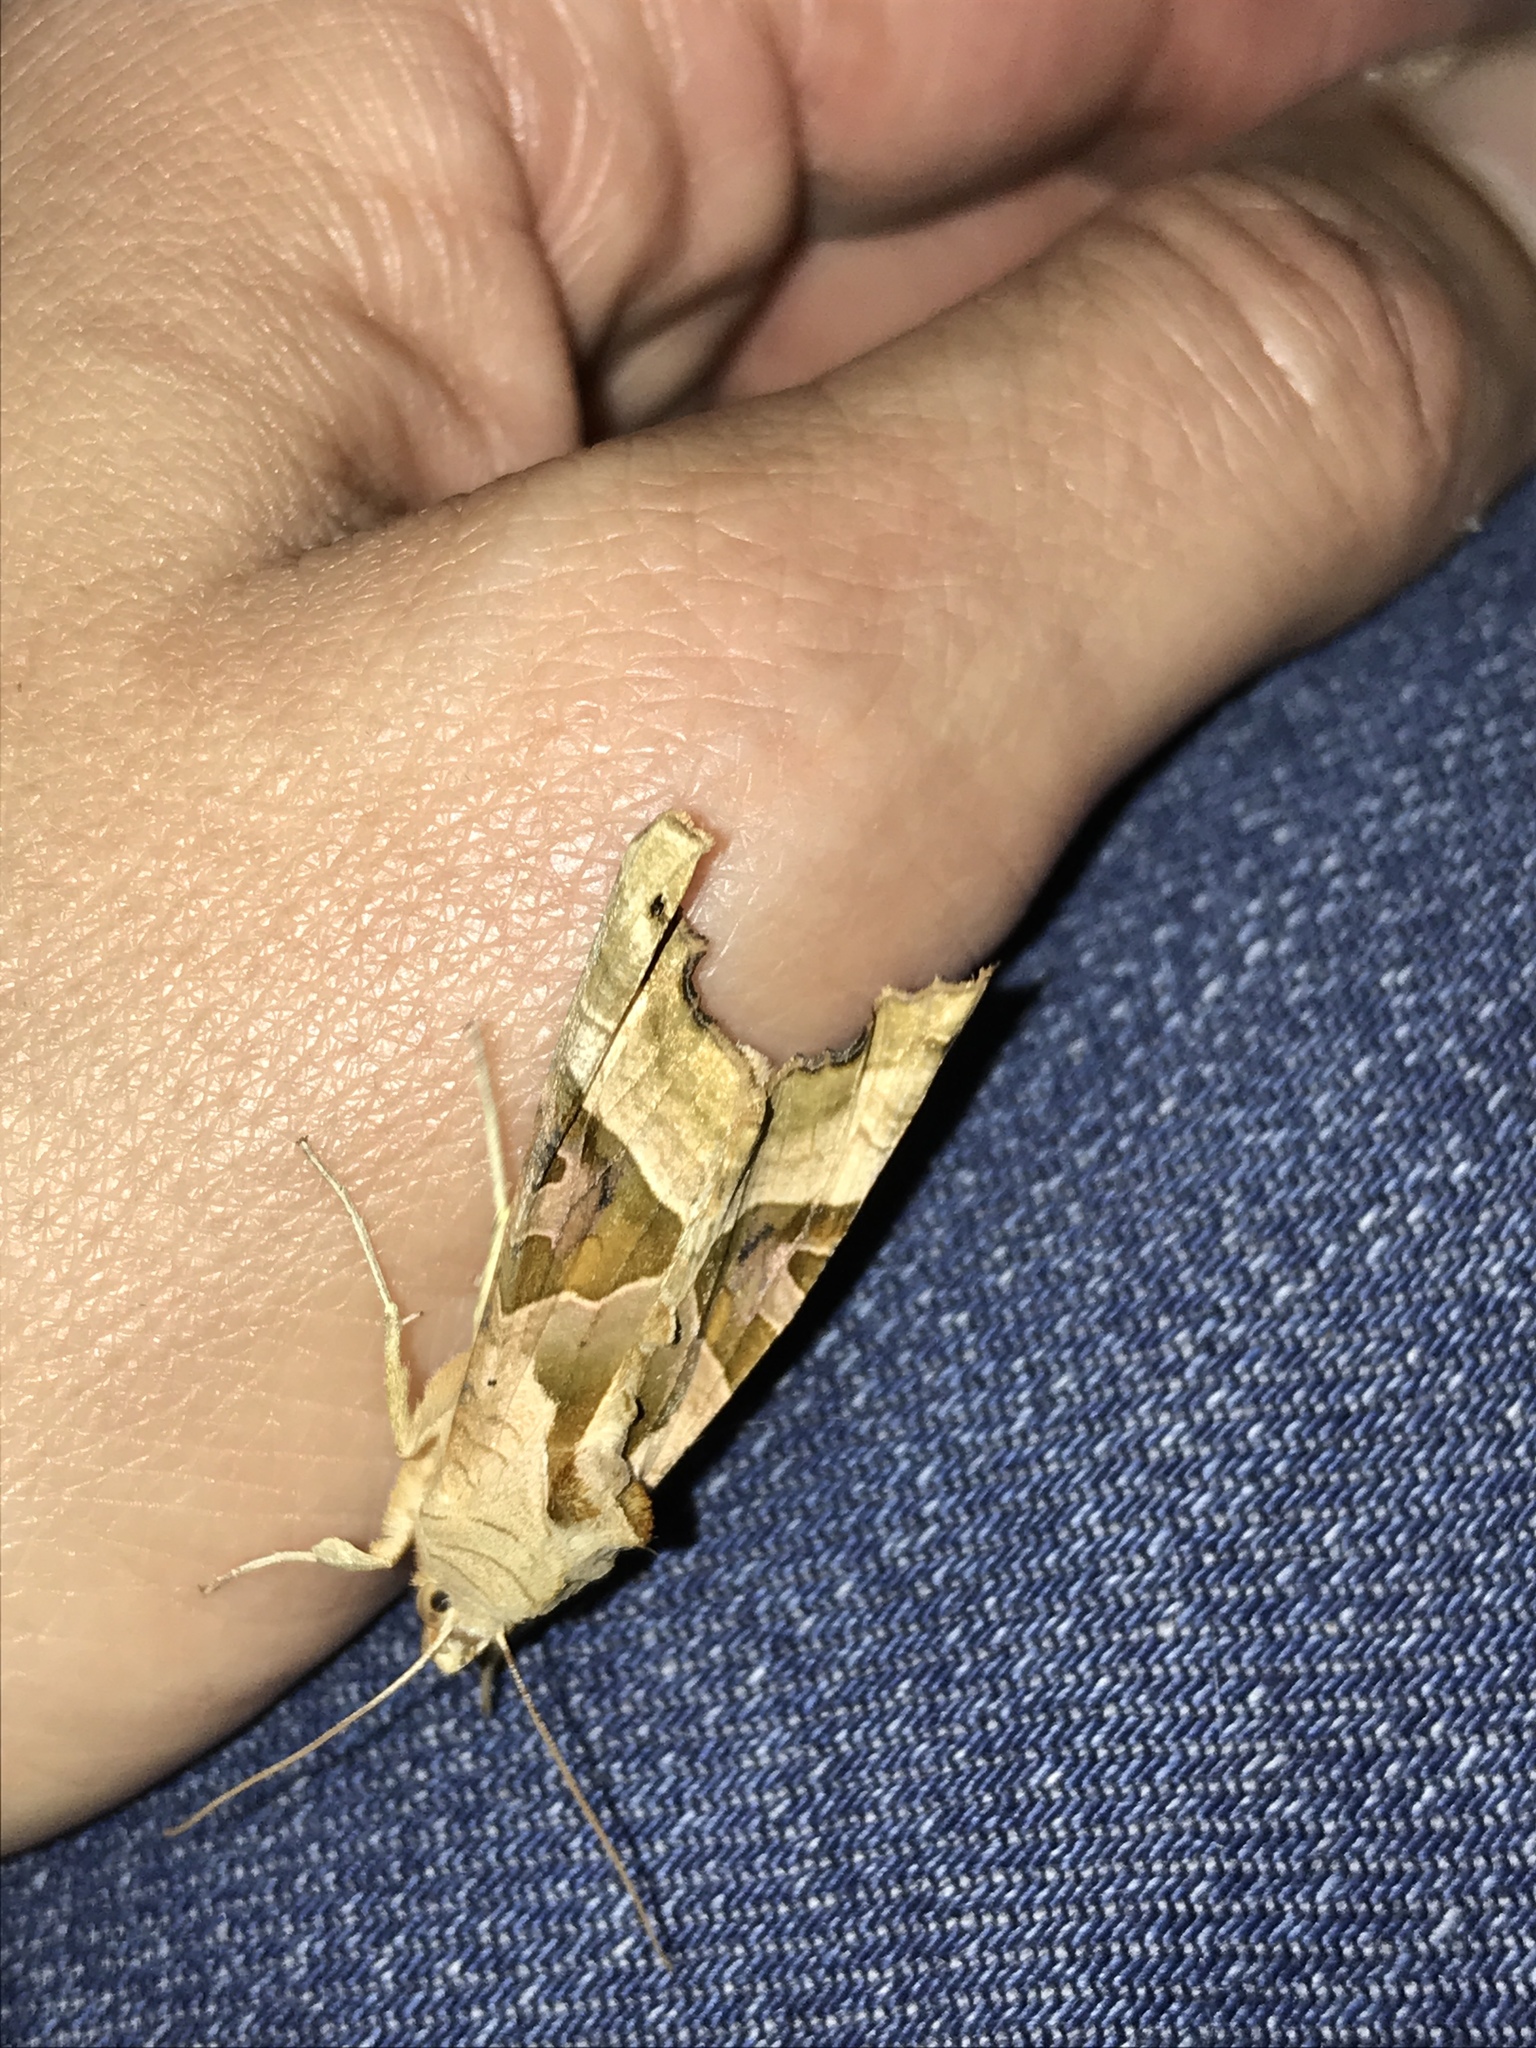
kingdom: Animalia
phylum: Arthropoda
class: Insecta
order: Lepidoptera
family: Noctuidae
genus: Phlogophora
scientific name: Phlogophora meticulosa
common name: Angle shades
